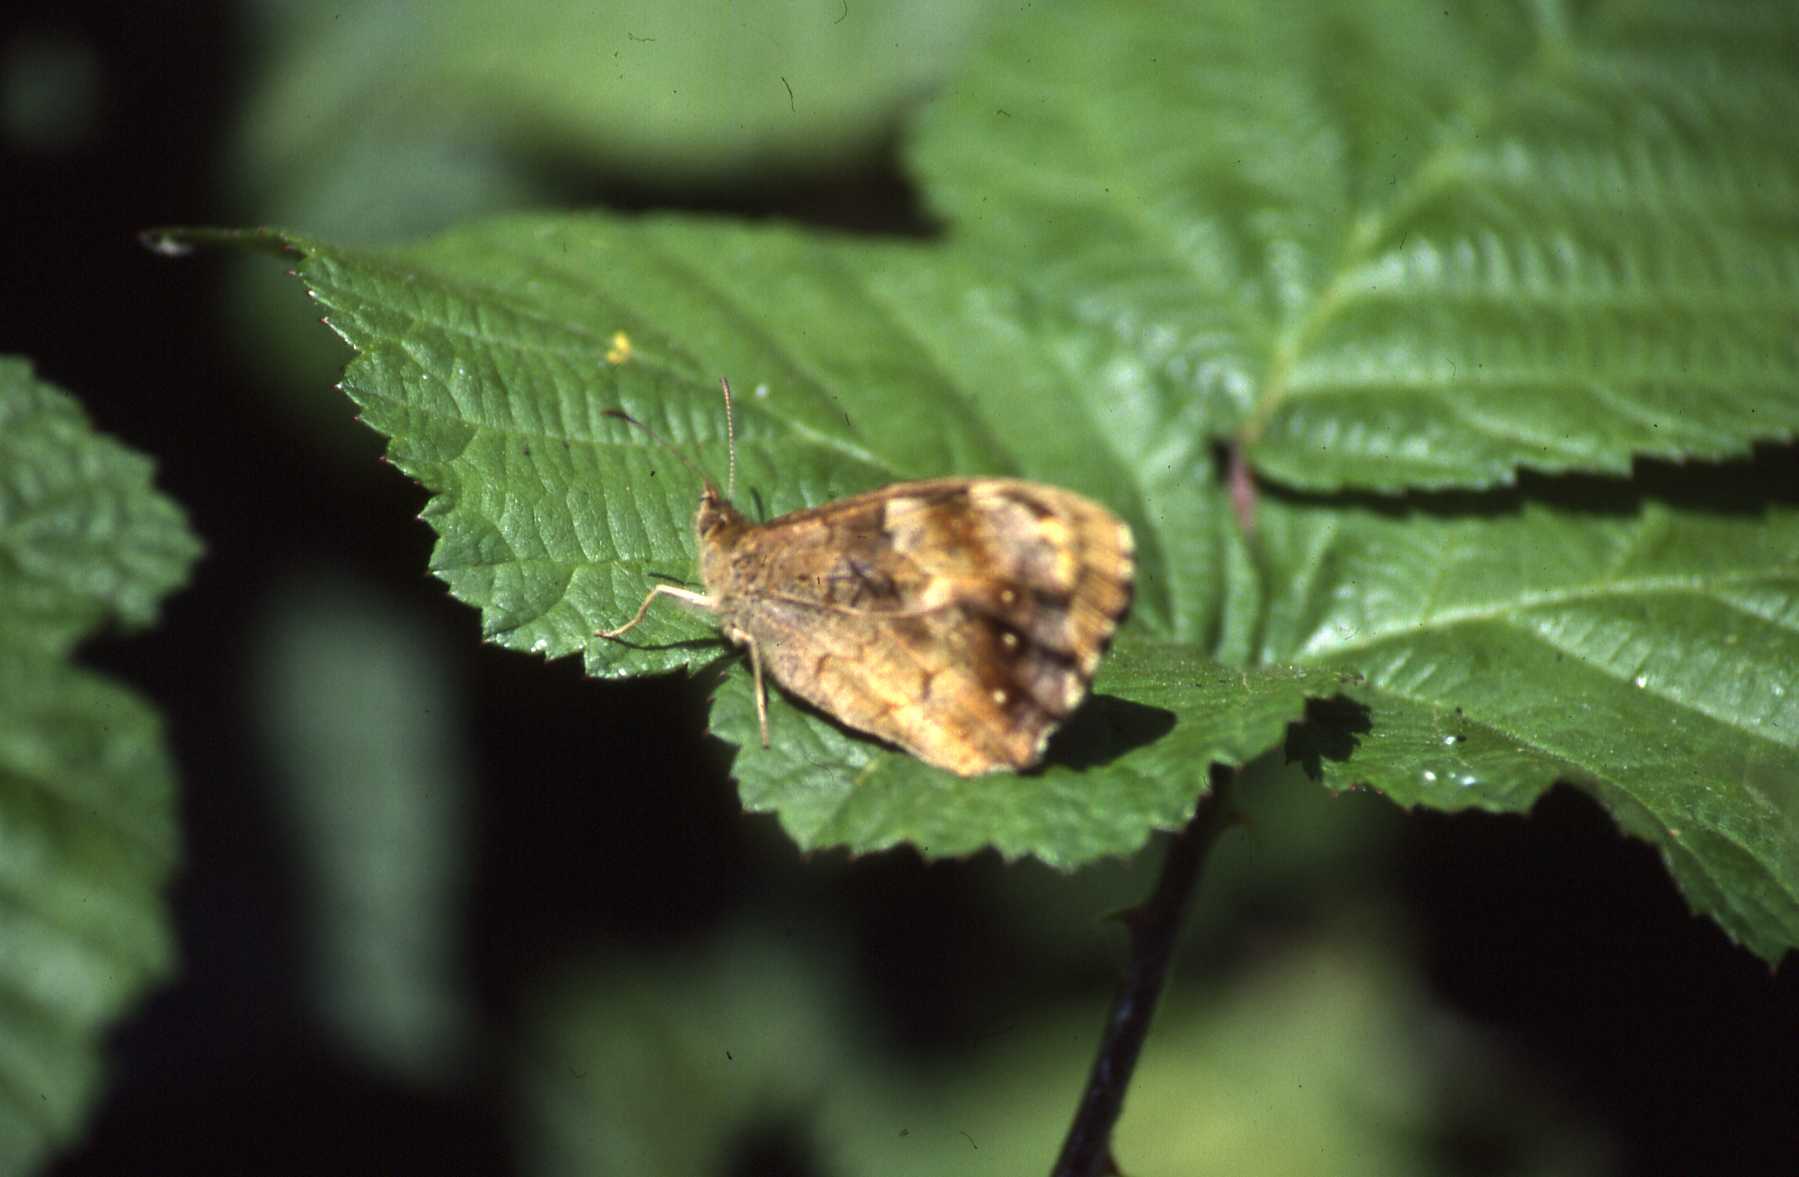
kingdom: Animalia
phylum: Arthropoda
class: Insecta
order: Lepidoptera
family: Nymphalidae
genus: Pararge
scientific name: Pararge aegeria
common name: Speckled wood
